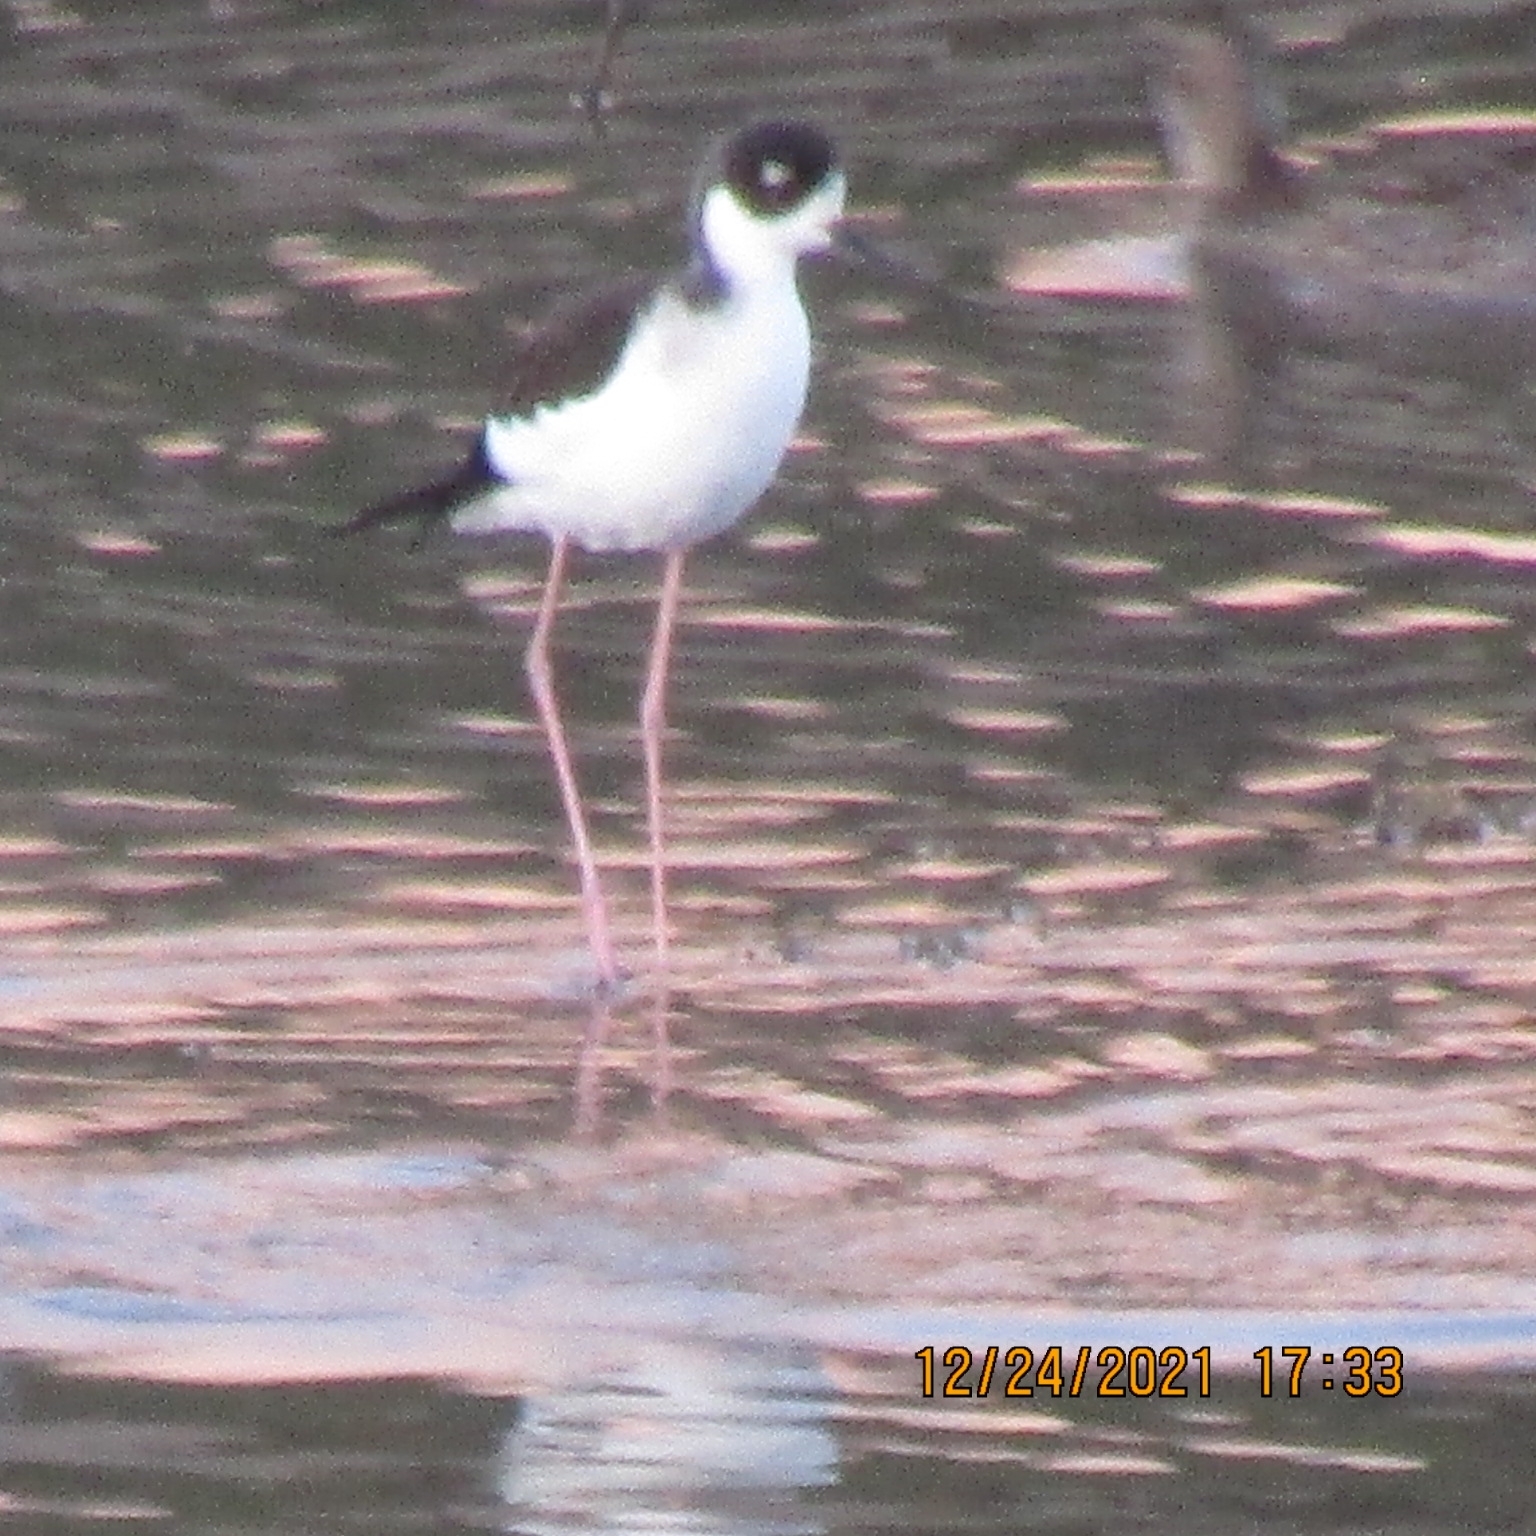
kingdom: Animalia
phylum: Chordata
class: Aves
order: Charadriiformes
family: Recurvirostridae
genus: Himantopus
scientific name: Himantopus mexicanus
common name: Black-necked stilt
